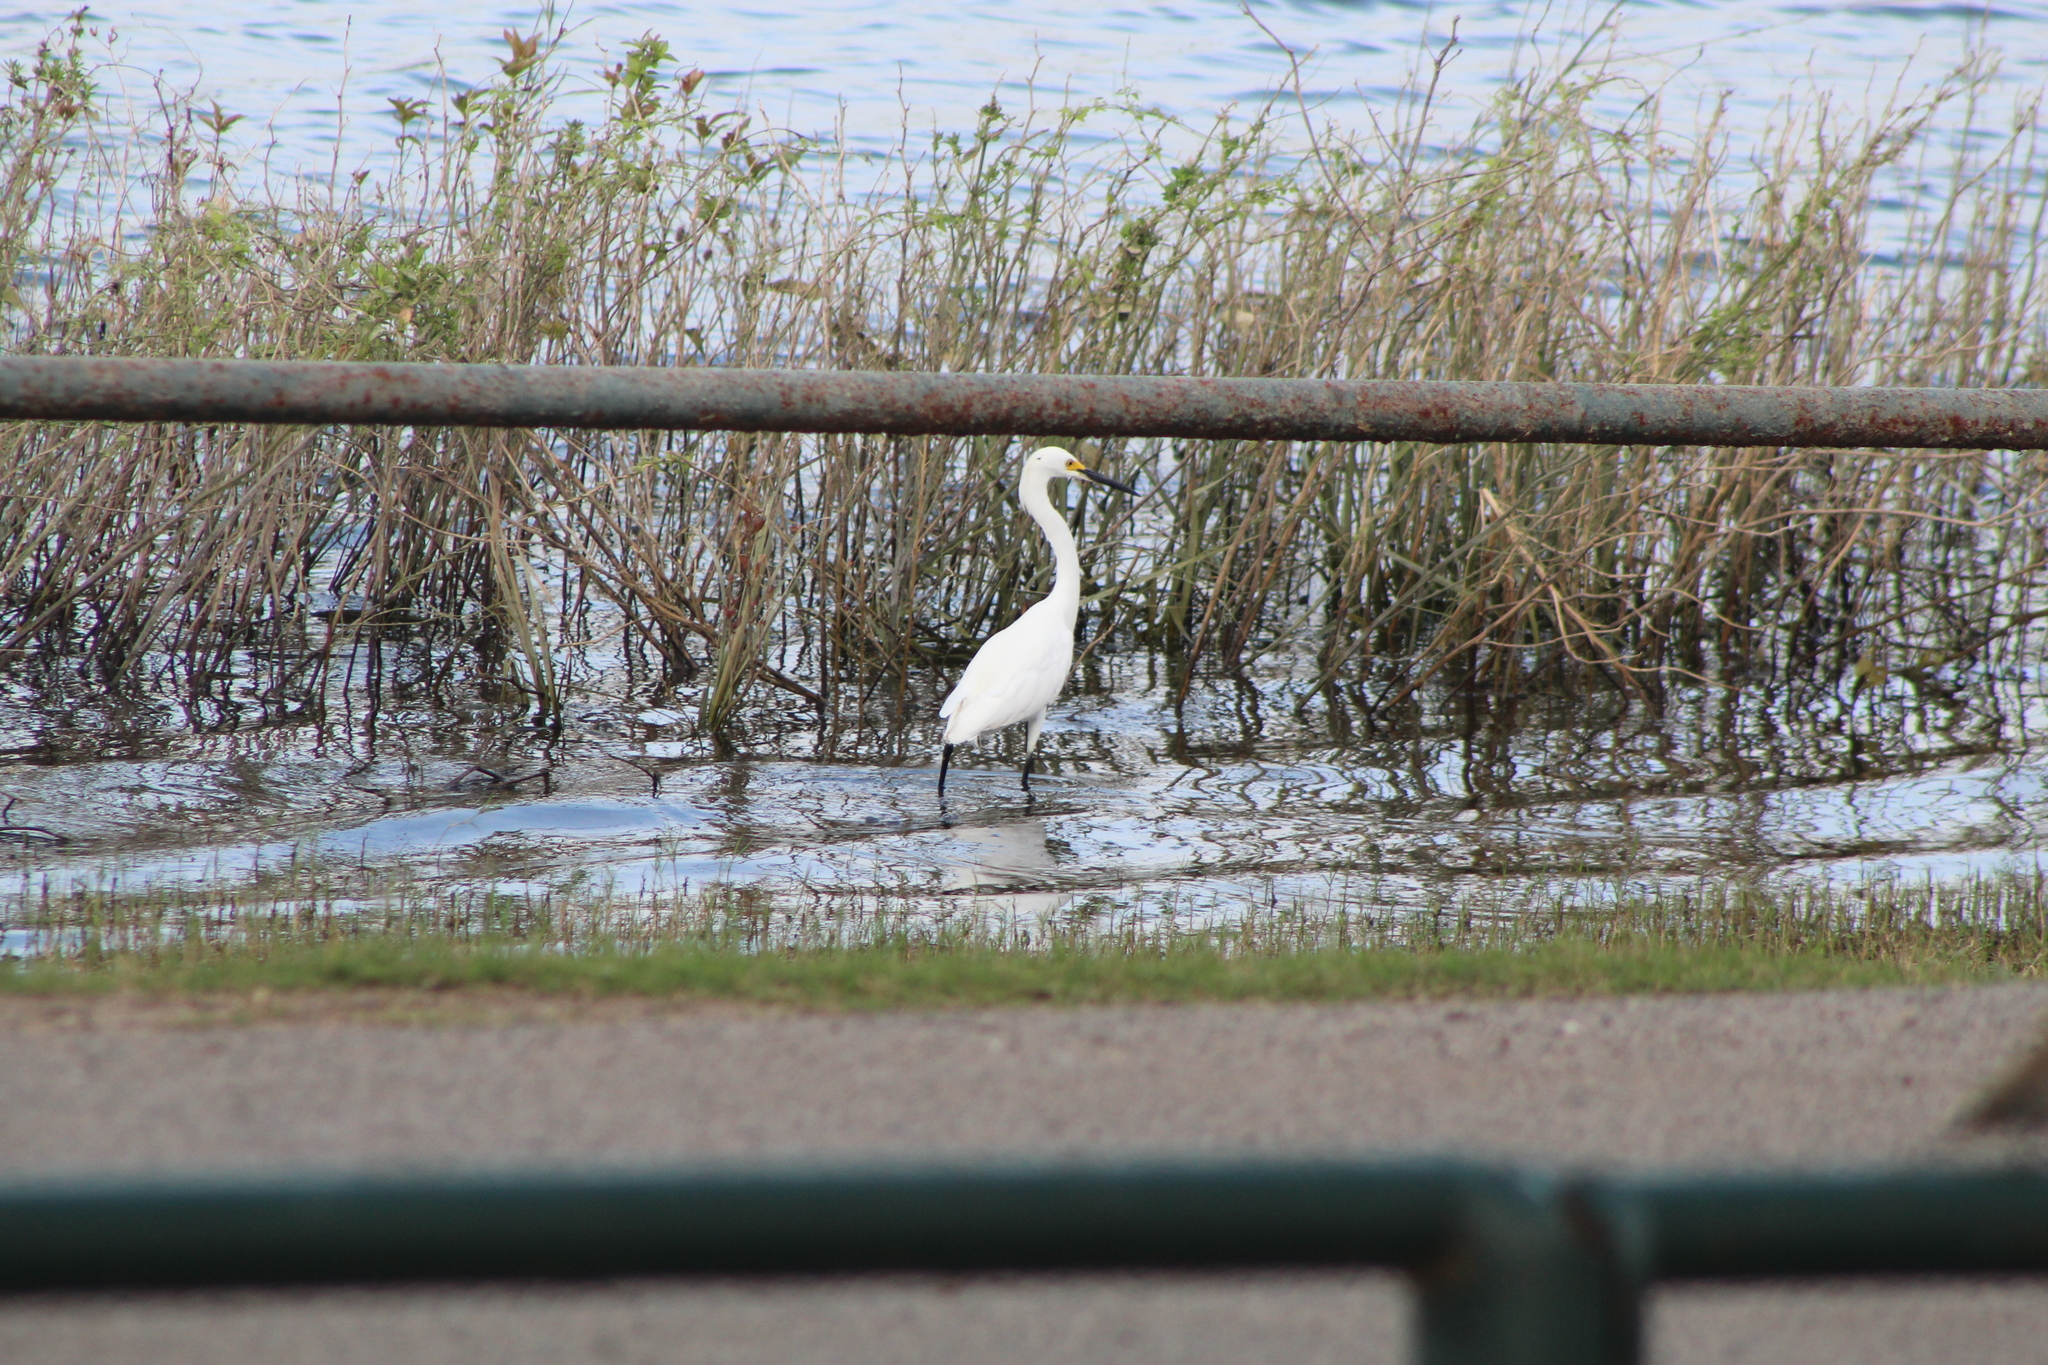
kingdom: Animalia
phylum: Chordata
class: Aves
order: Pelecaniformes
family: Ardeidae
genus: Egretta
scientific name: Egretta thula
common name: Snowy egret
